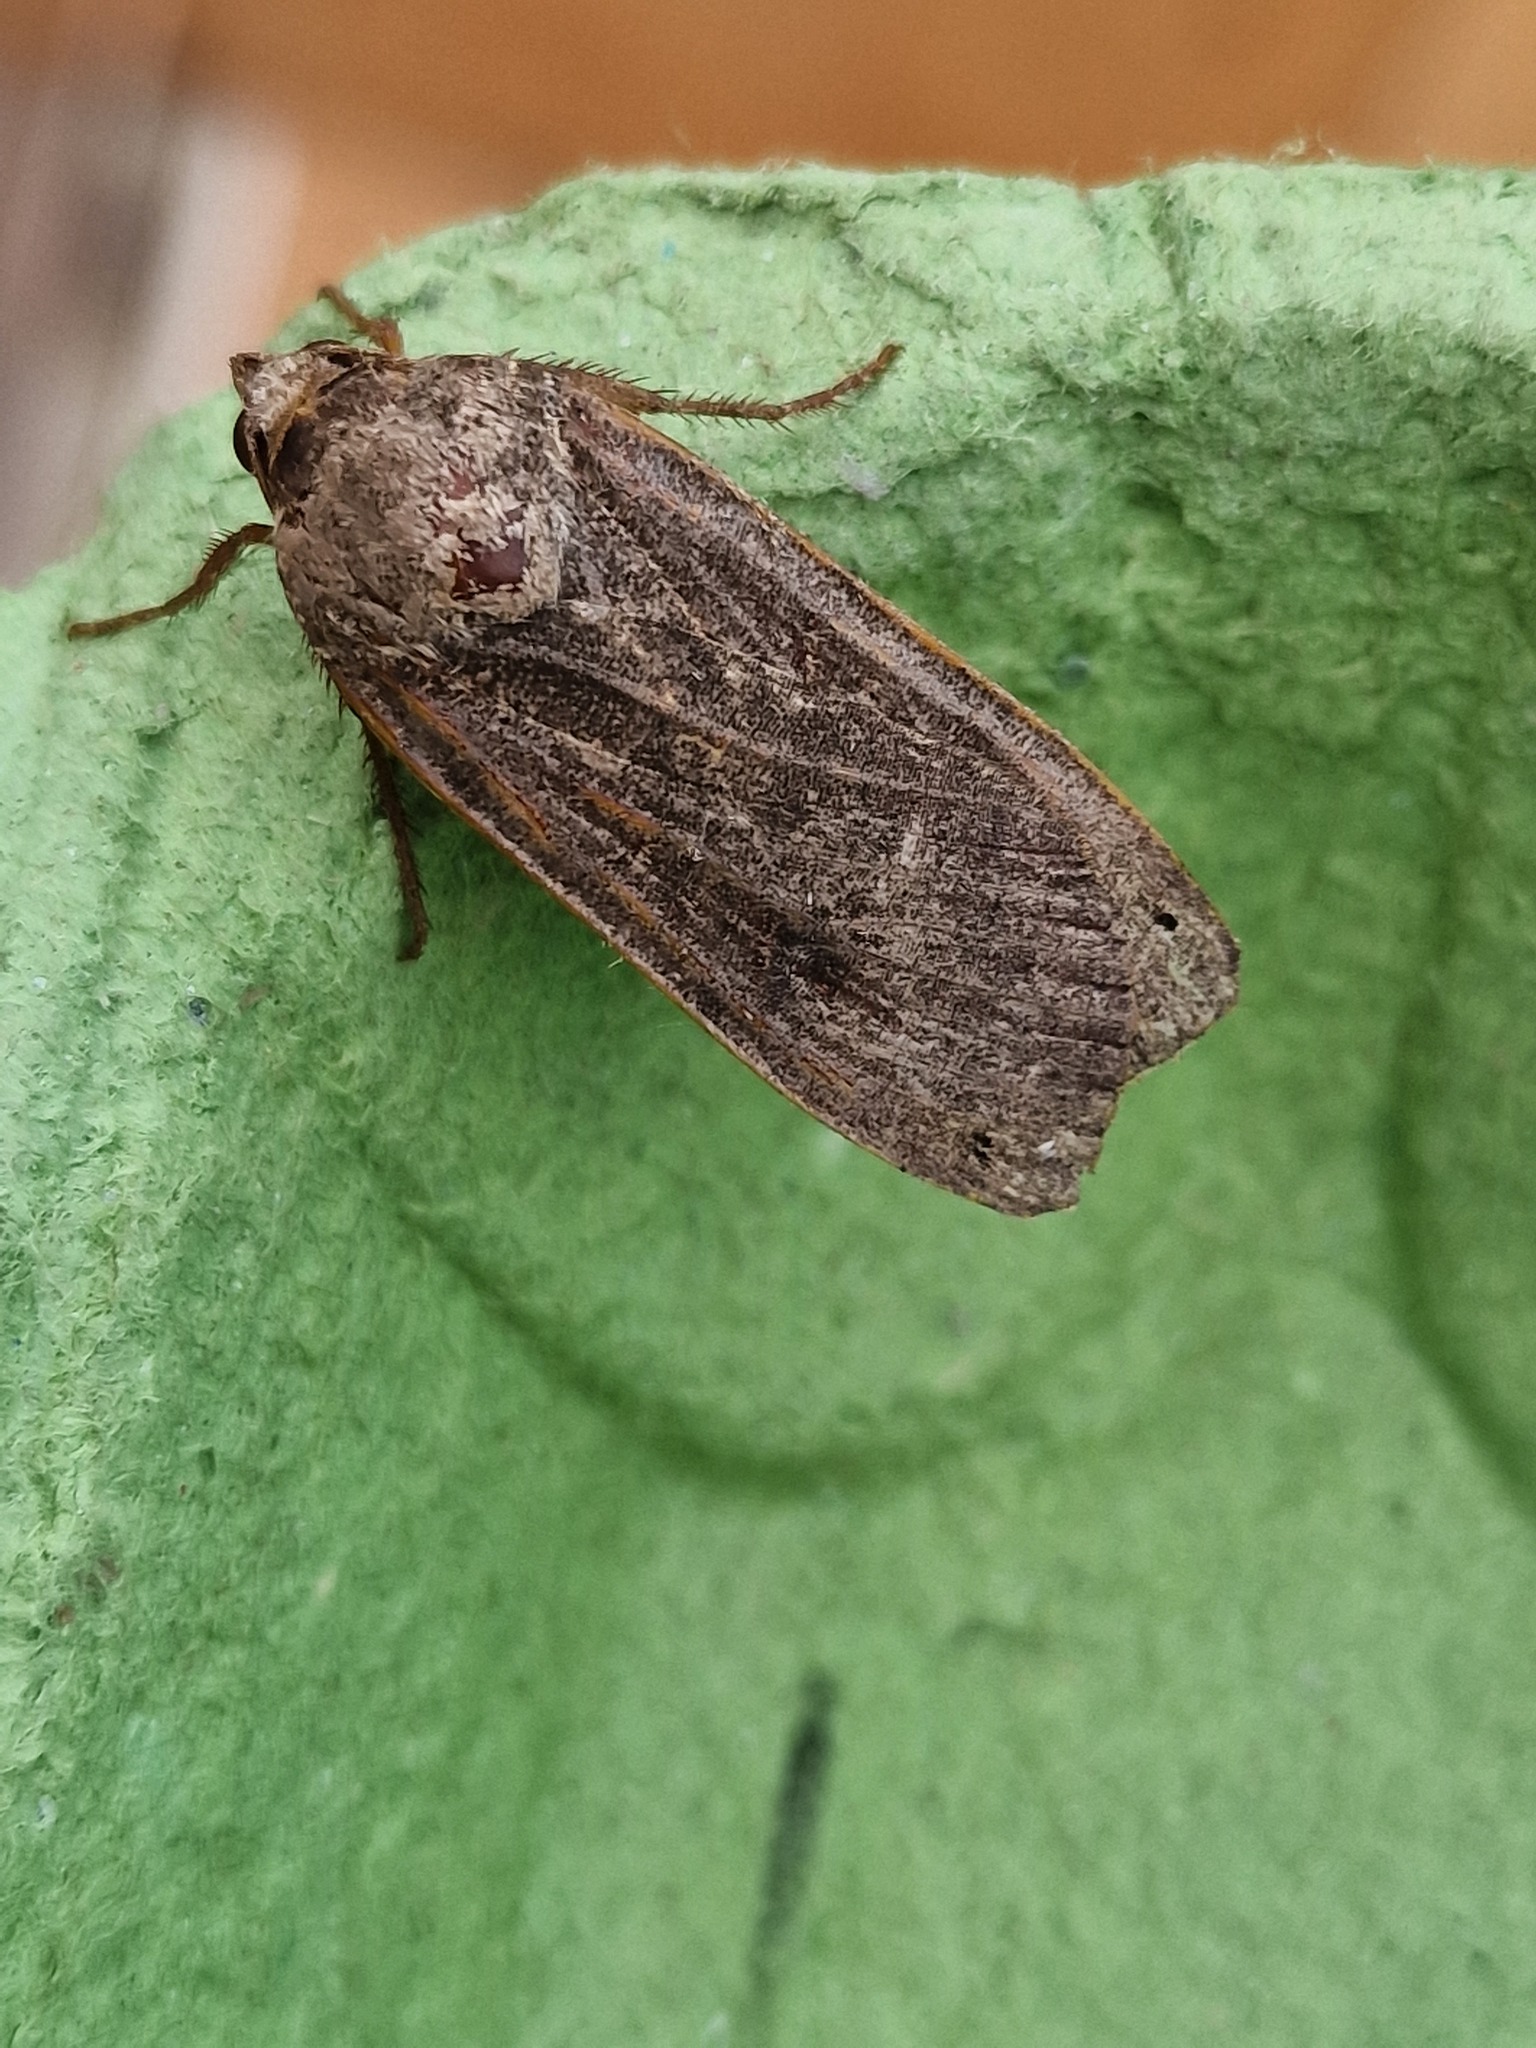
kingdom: Animalia
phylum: Arthropoda
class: Insecta
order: Lepidoptera
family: Noctuidae
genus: Noctua
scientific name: Noctua pronuba
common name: Large yellow underwing
